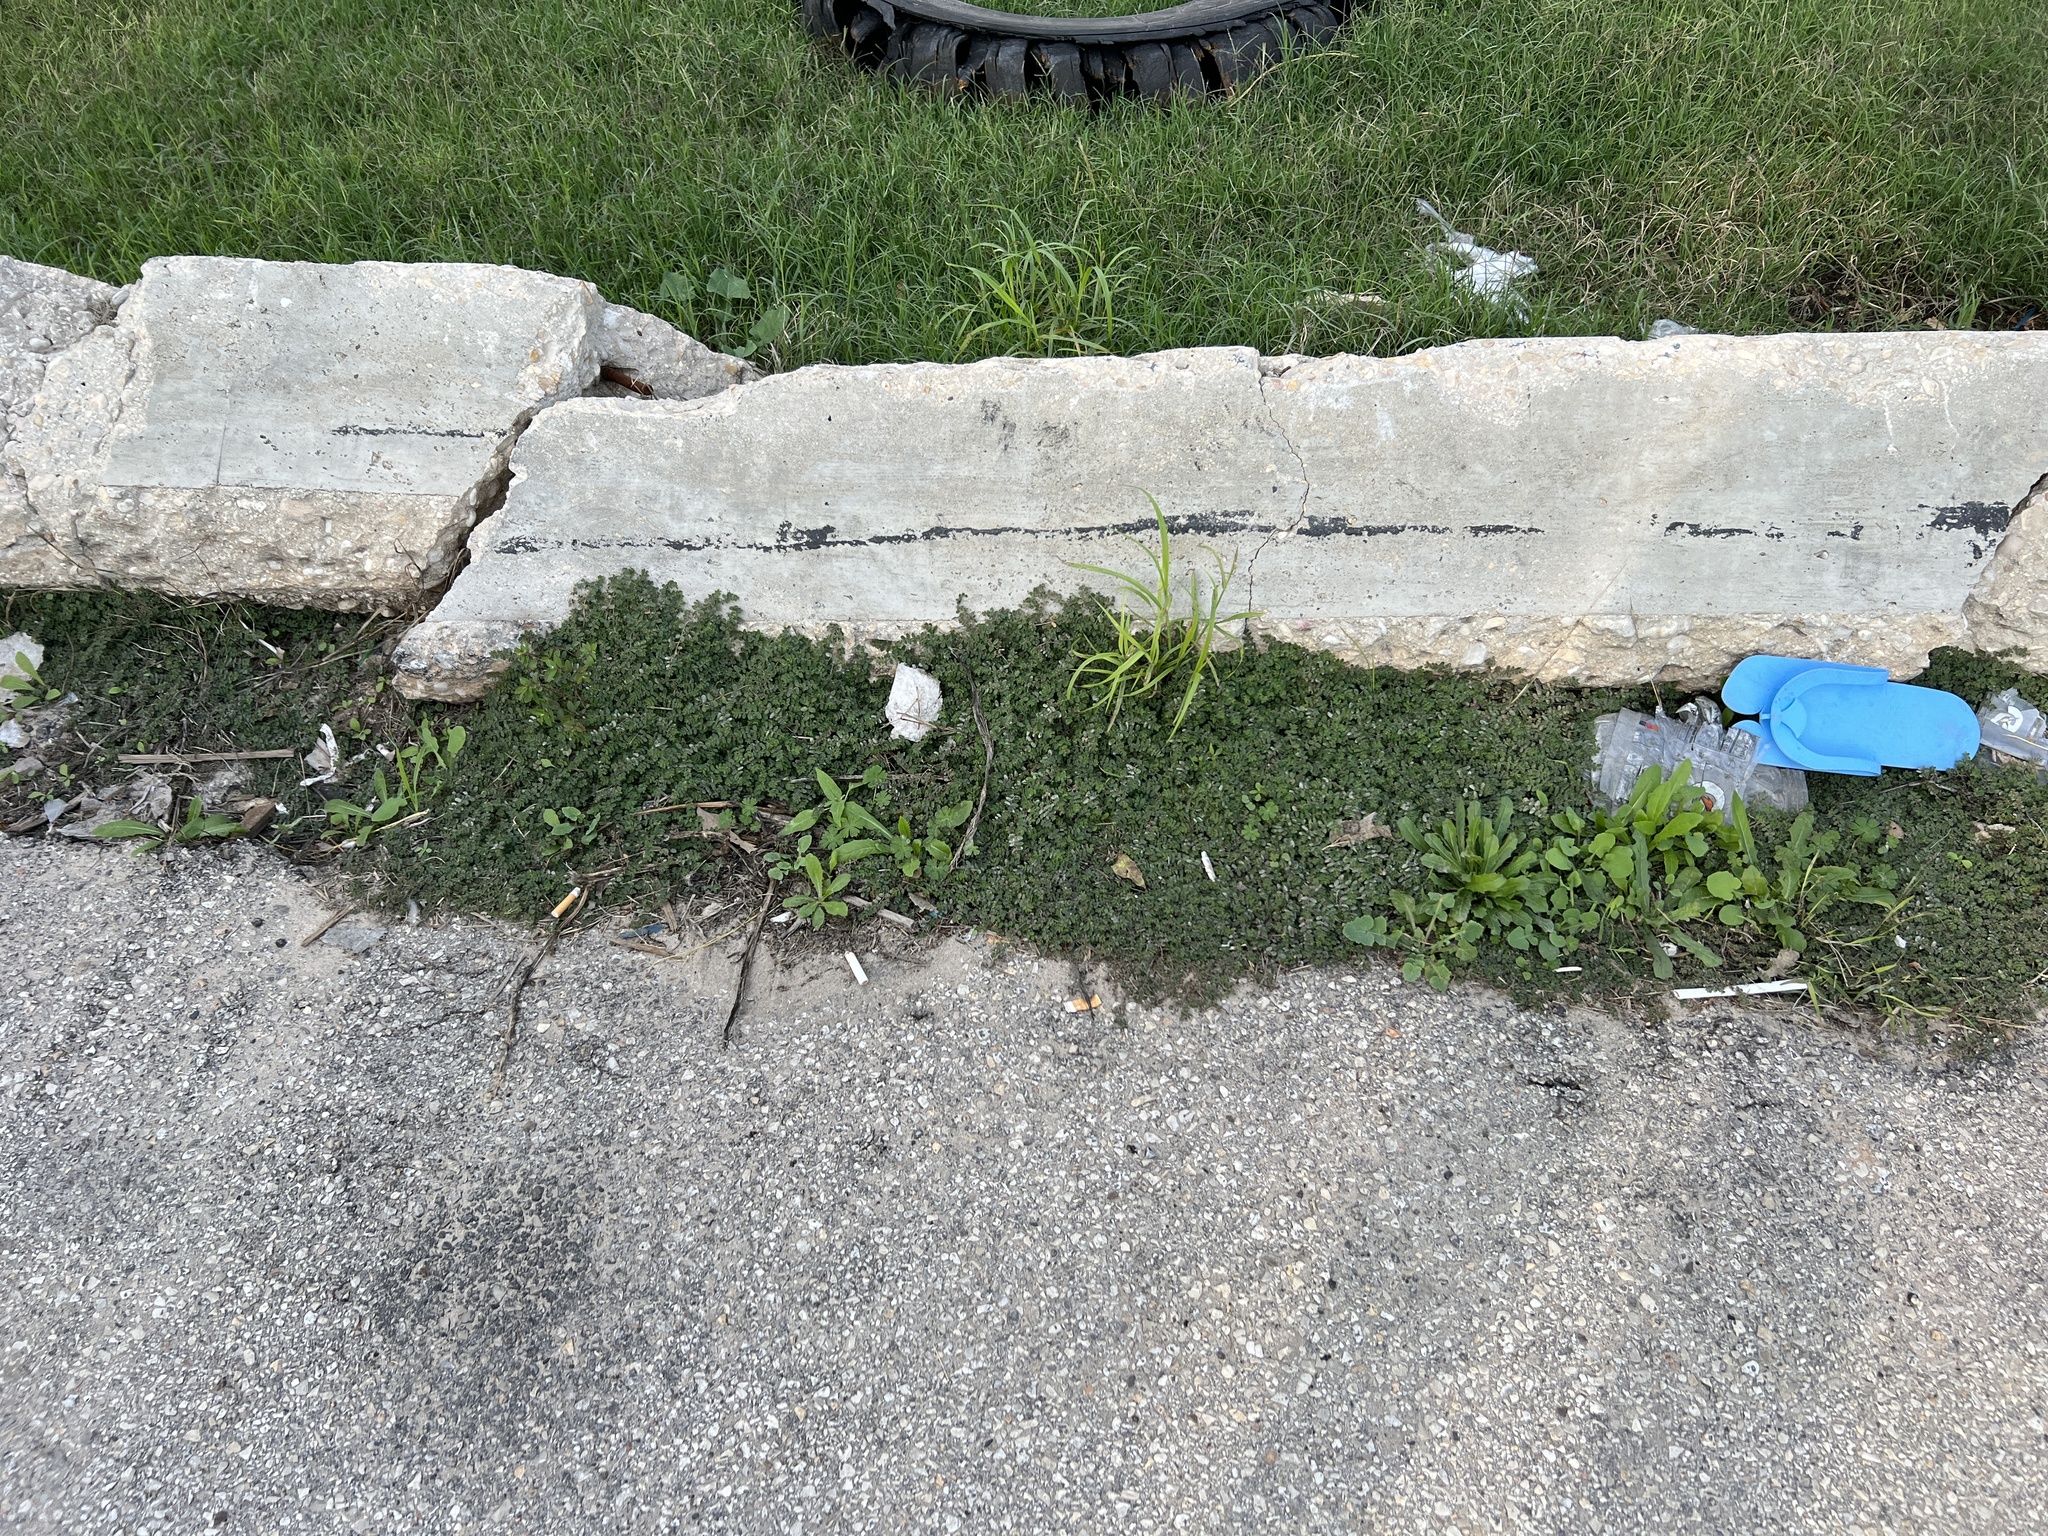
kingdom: Plantae
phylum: Tracheophyta
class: Magnoliopsida
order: Malpighiales
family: Euphorbiaceae
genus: Euphorbia
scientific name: Euphorbia prostrata
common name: Prostrate sandmat
